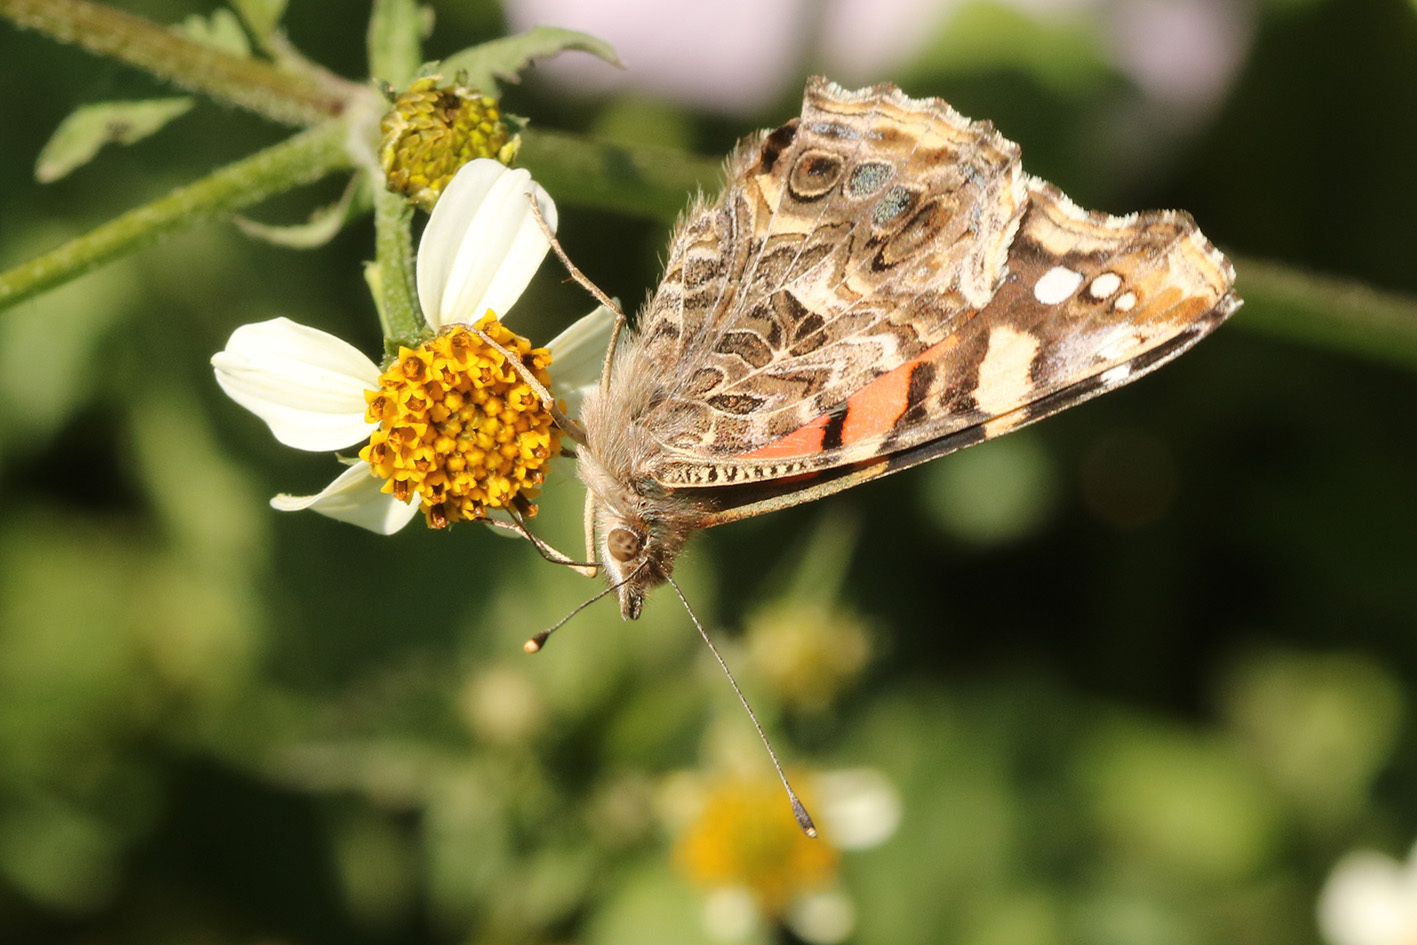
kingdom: Animalia
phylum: Arthropoda
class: Insecta
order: Lepidoptera
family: Nymphalidae
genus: Vanessa
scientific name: Vanessa carye
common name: Subtropical lady
